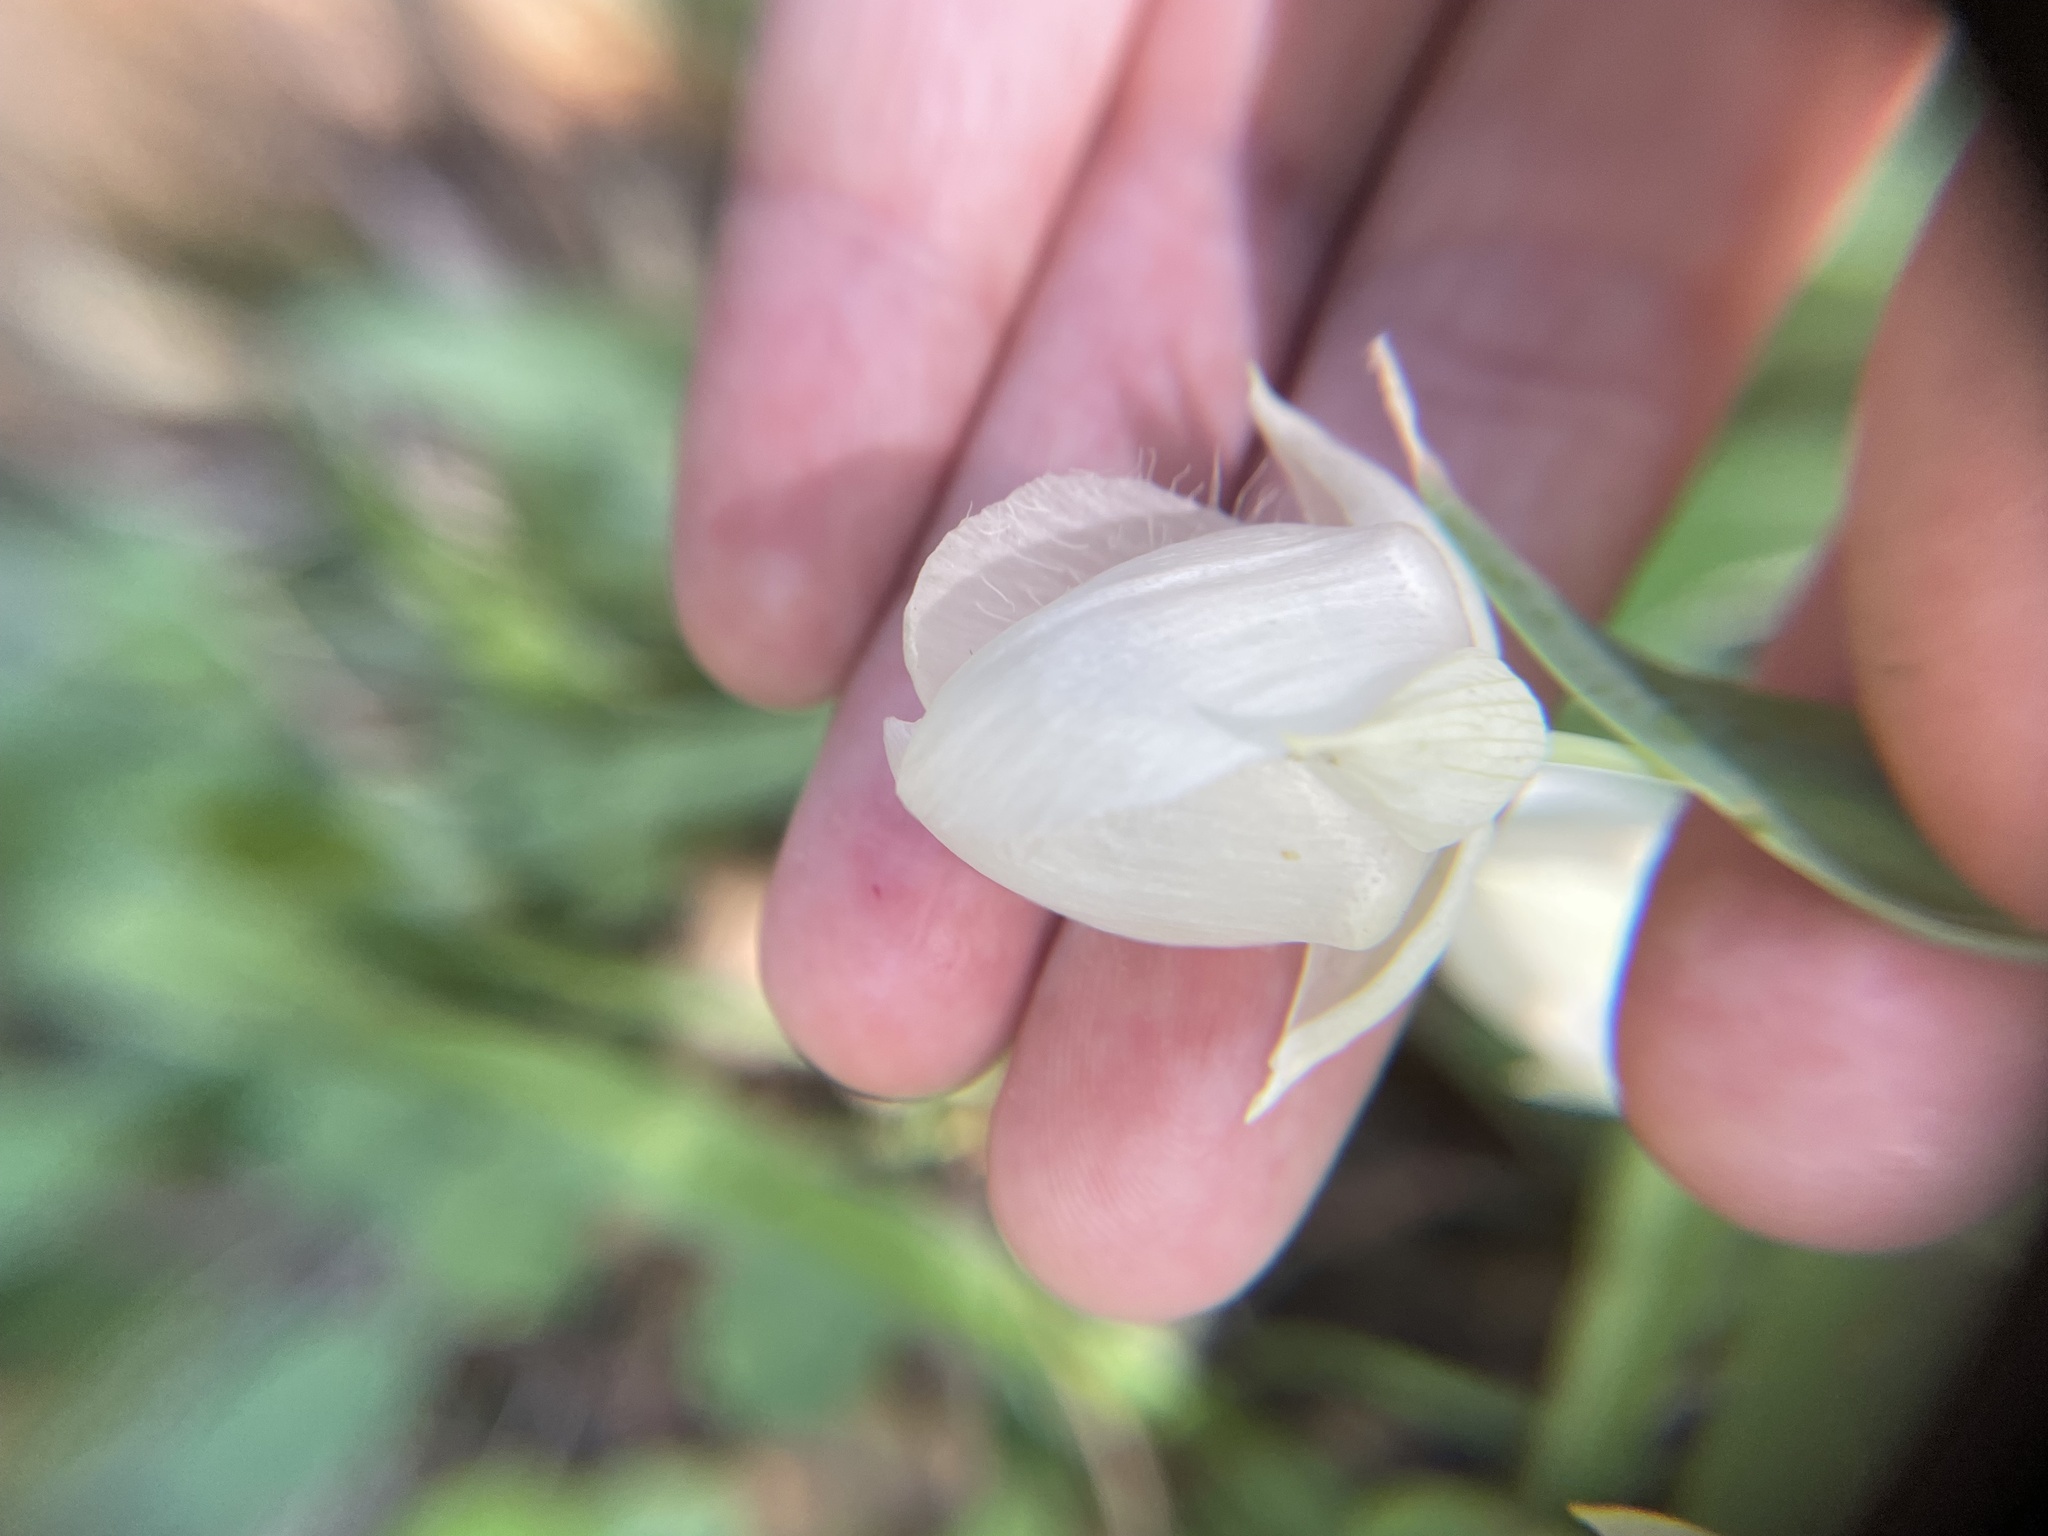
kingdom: Plantae
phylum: Tracheophyta
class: Liliopsida
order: Liliales
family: Liliaceae
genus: Calochortus
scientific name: Calochortus albus
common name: Fairy-lantern
